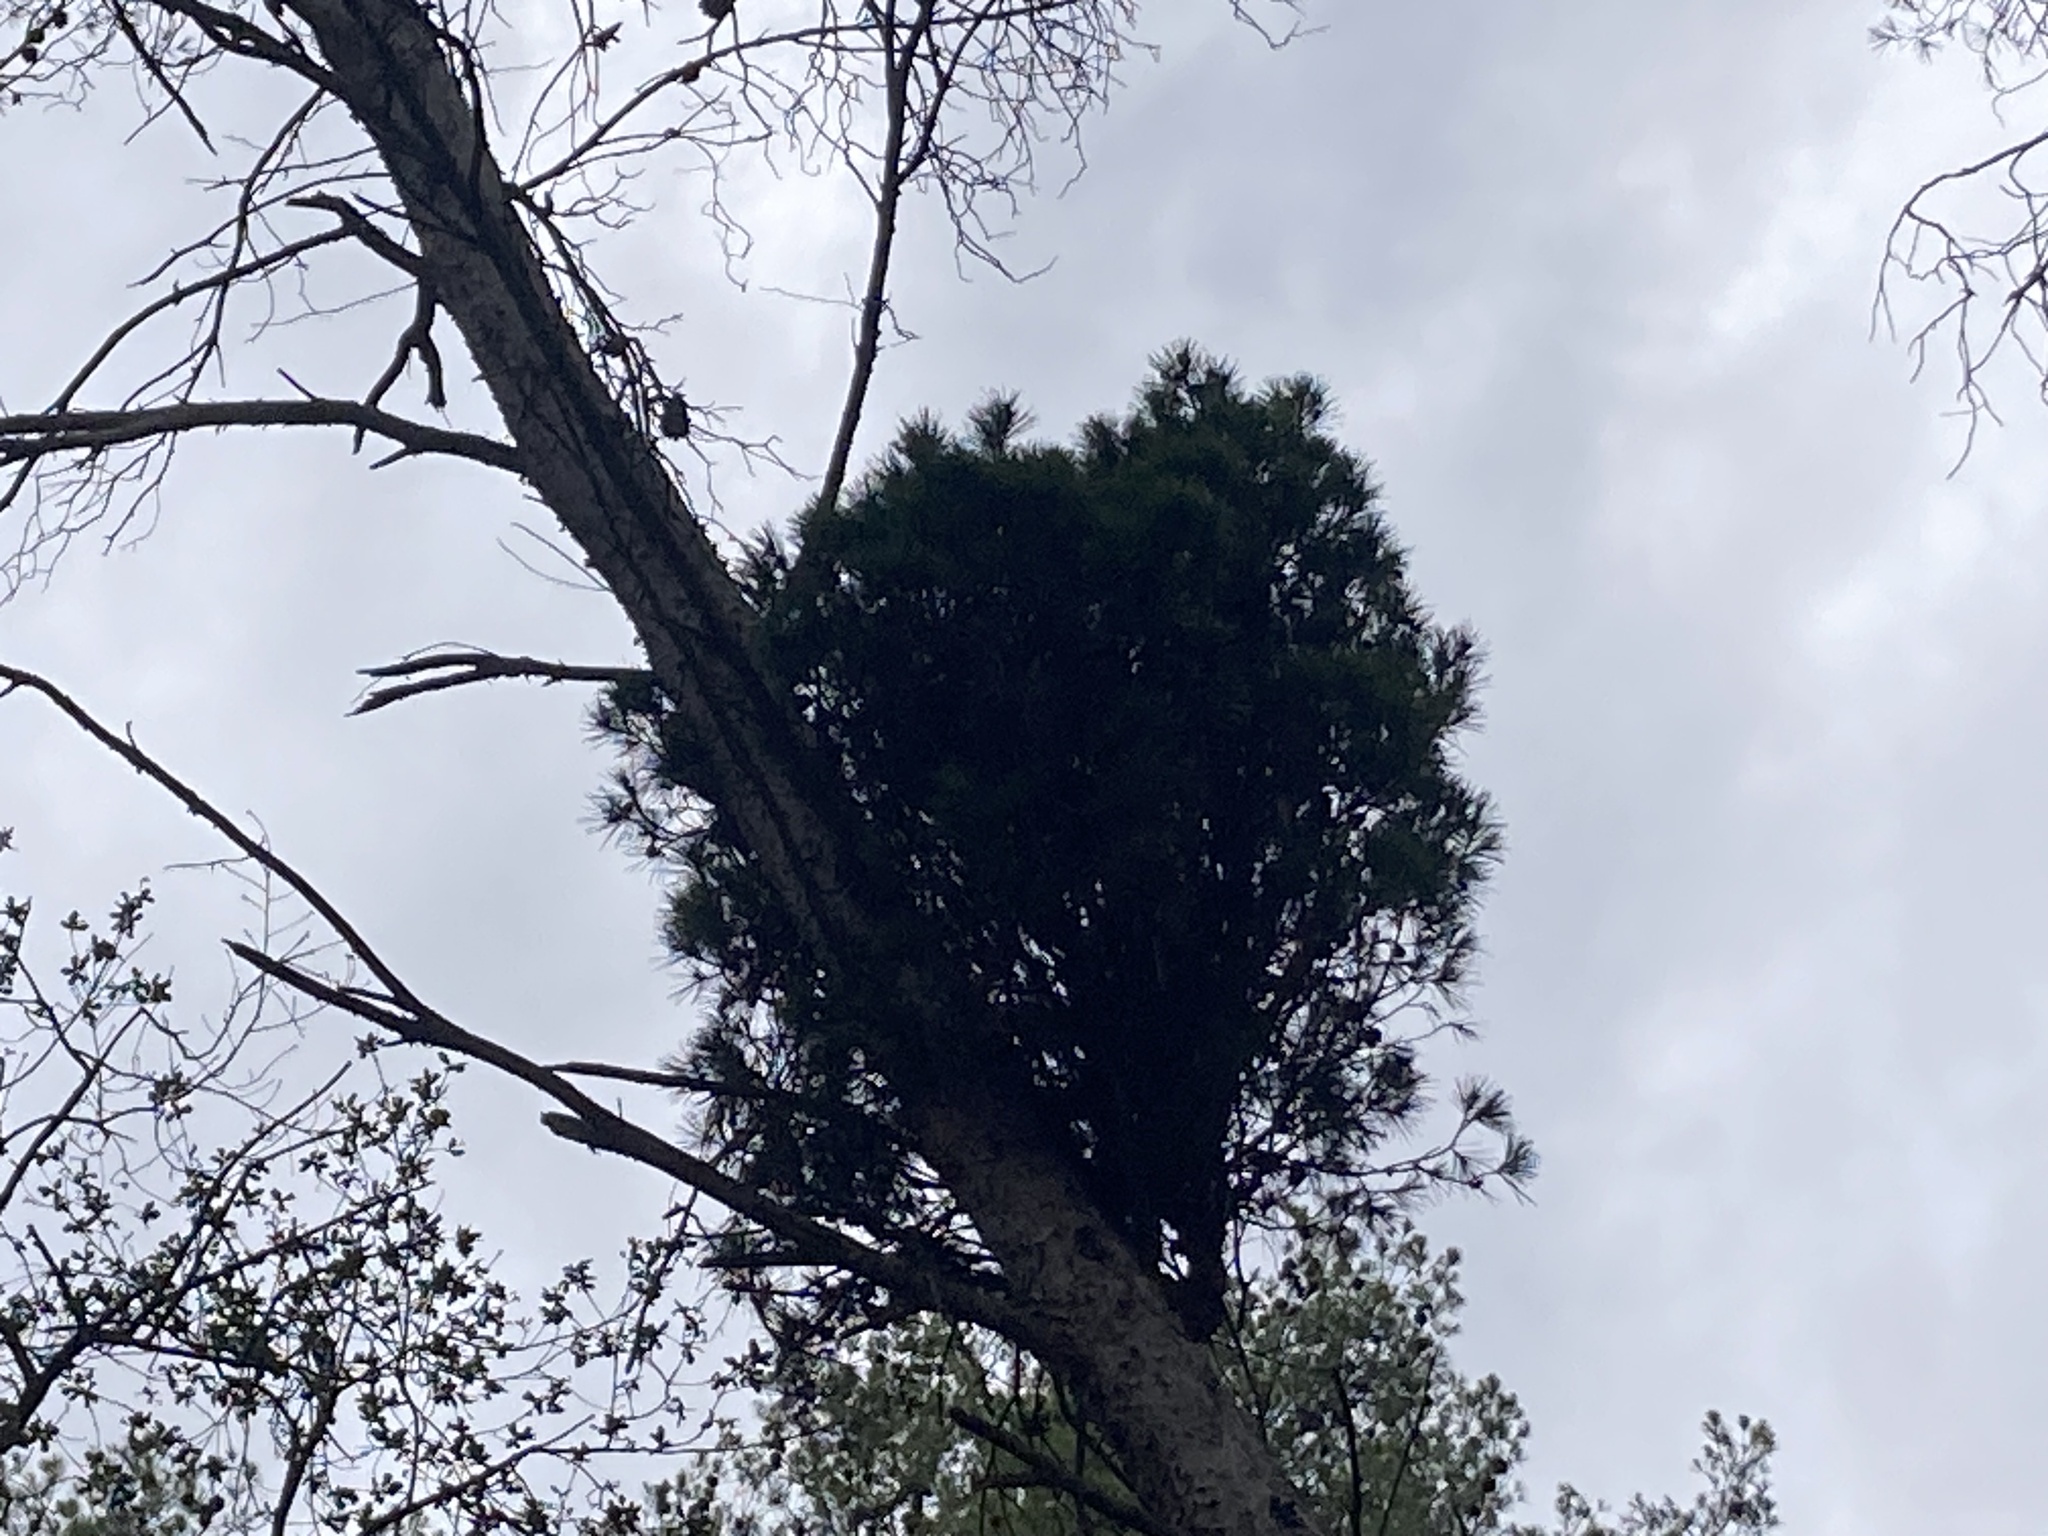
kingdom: Bacteria
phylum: Firmicutes
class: Bacilli
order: Acholeplasmatales
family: Acholeplasmataceae
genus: Phytoplasma
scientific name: Phytoplasma pini
